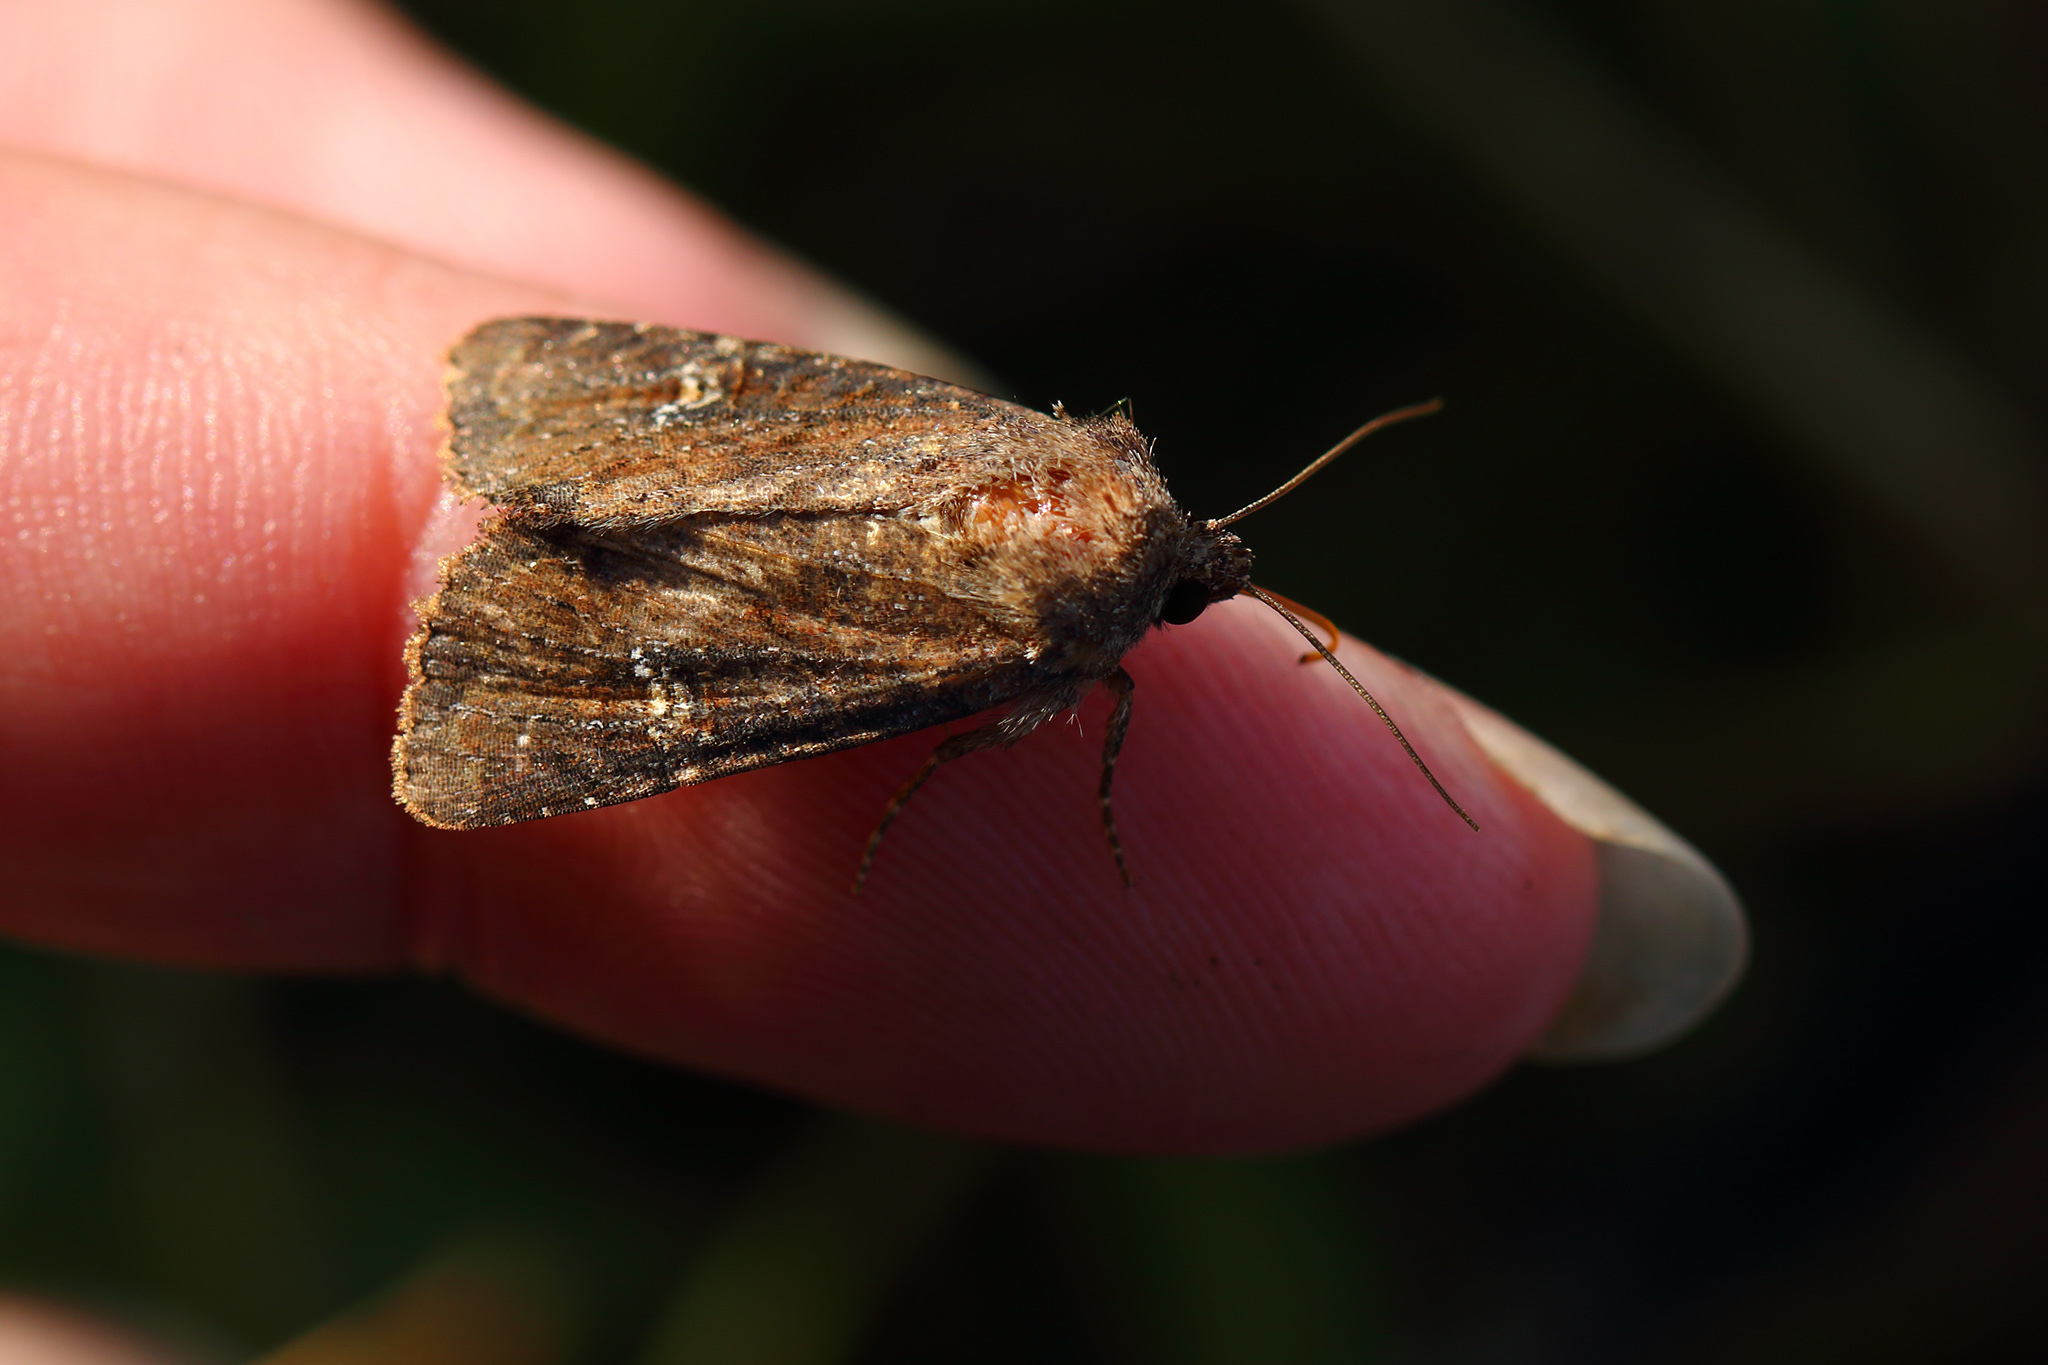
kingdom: Animalia
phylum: Arthropoda
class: Insecta
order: Lepidoptera
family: Noctuidae
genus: Mesapamea
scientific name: Mesapamea
